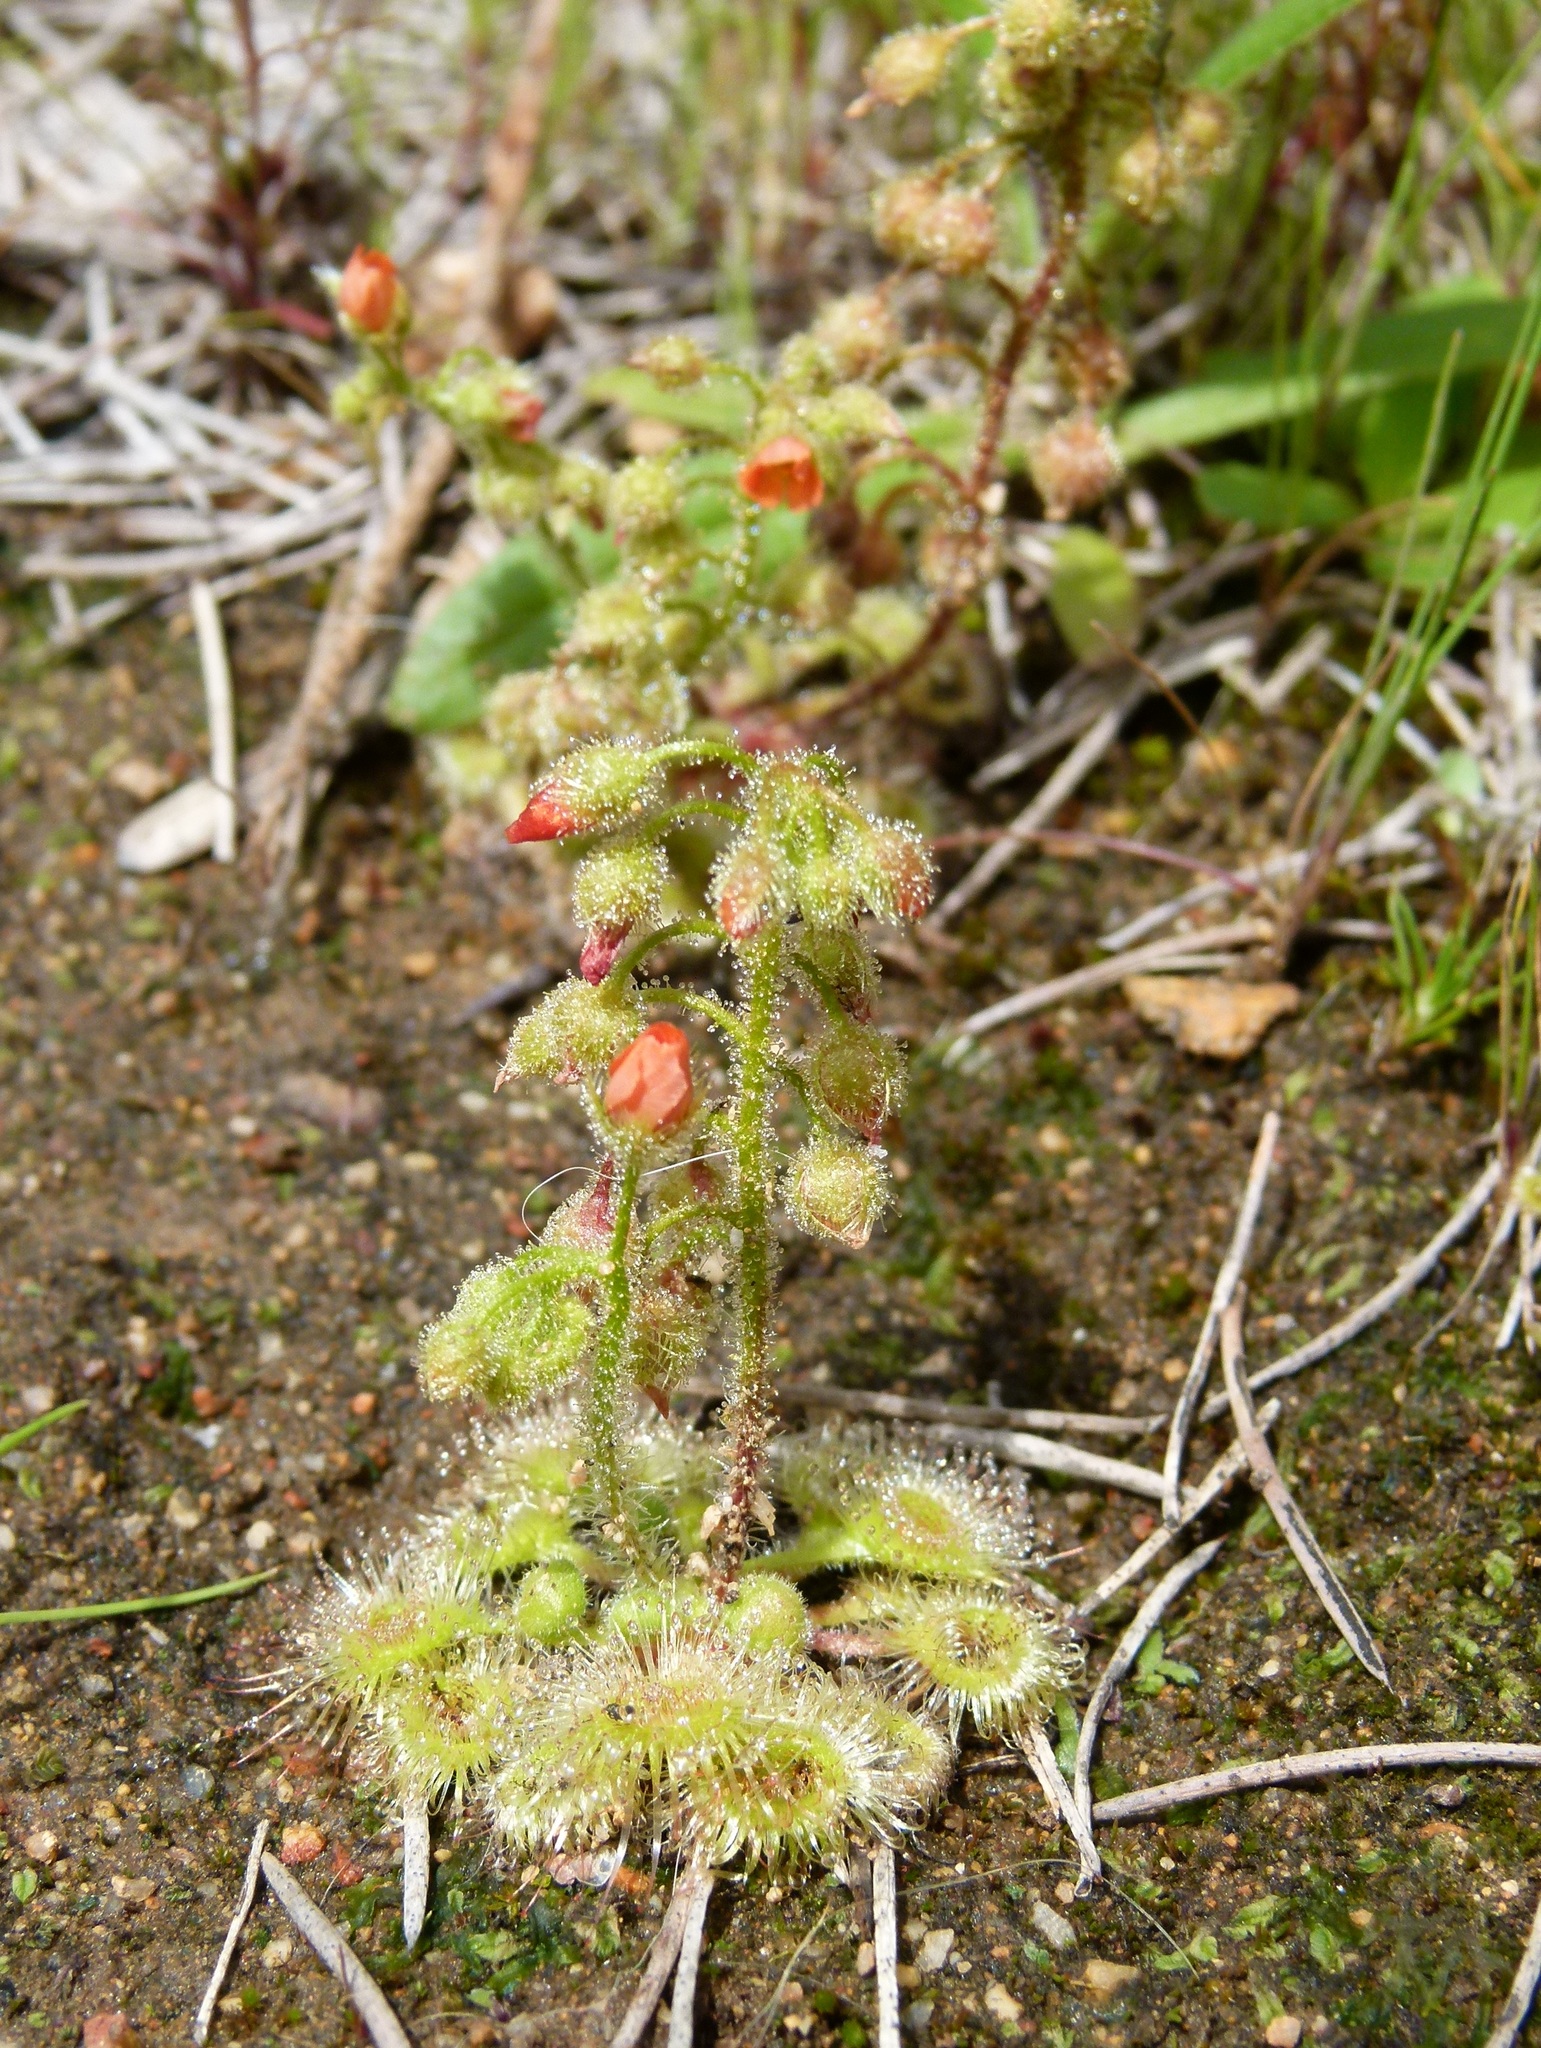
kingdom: Plantae
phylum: Tracheophyta
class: Magnoliopsida
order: Caryophyllales
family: Droseraceae
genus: Drosera
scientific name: Drosera glanduligera
